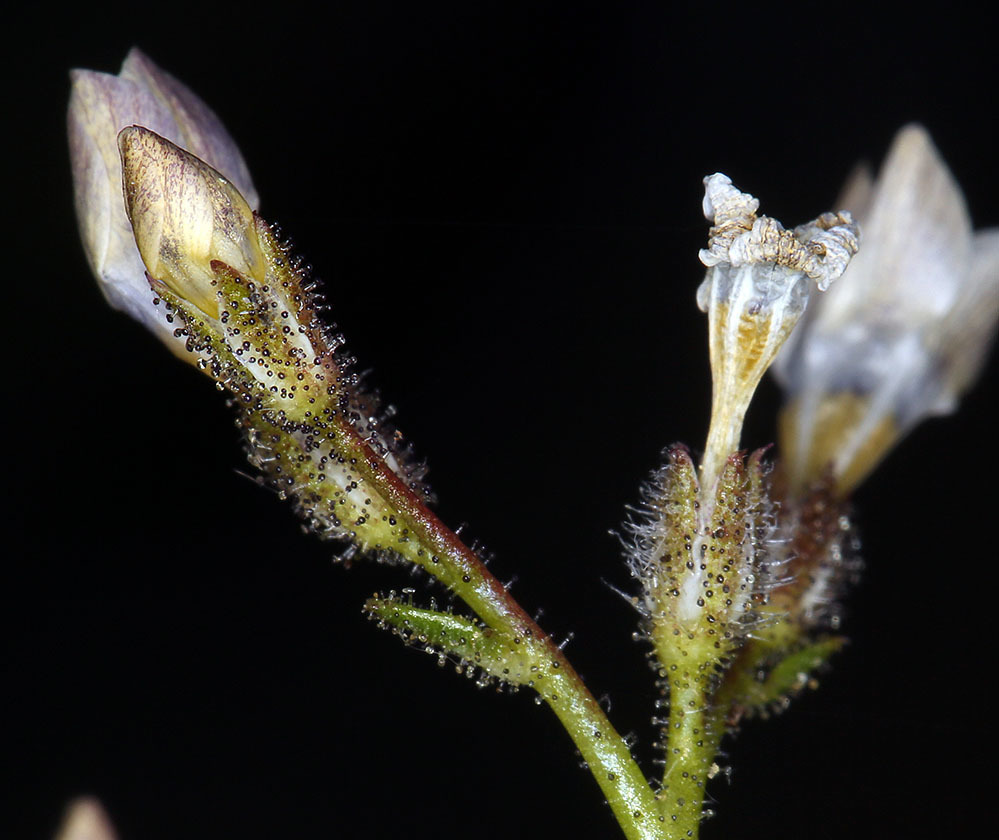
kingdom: Plantae
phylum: Tracheophyta
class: Magnoliopsida
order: Ericales
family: Polemoniaceae
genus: Gilia
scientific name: Gilia stellata
